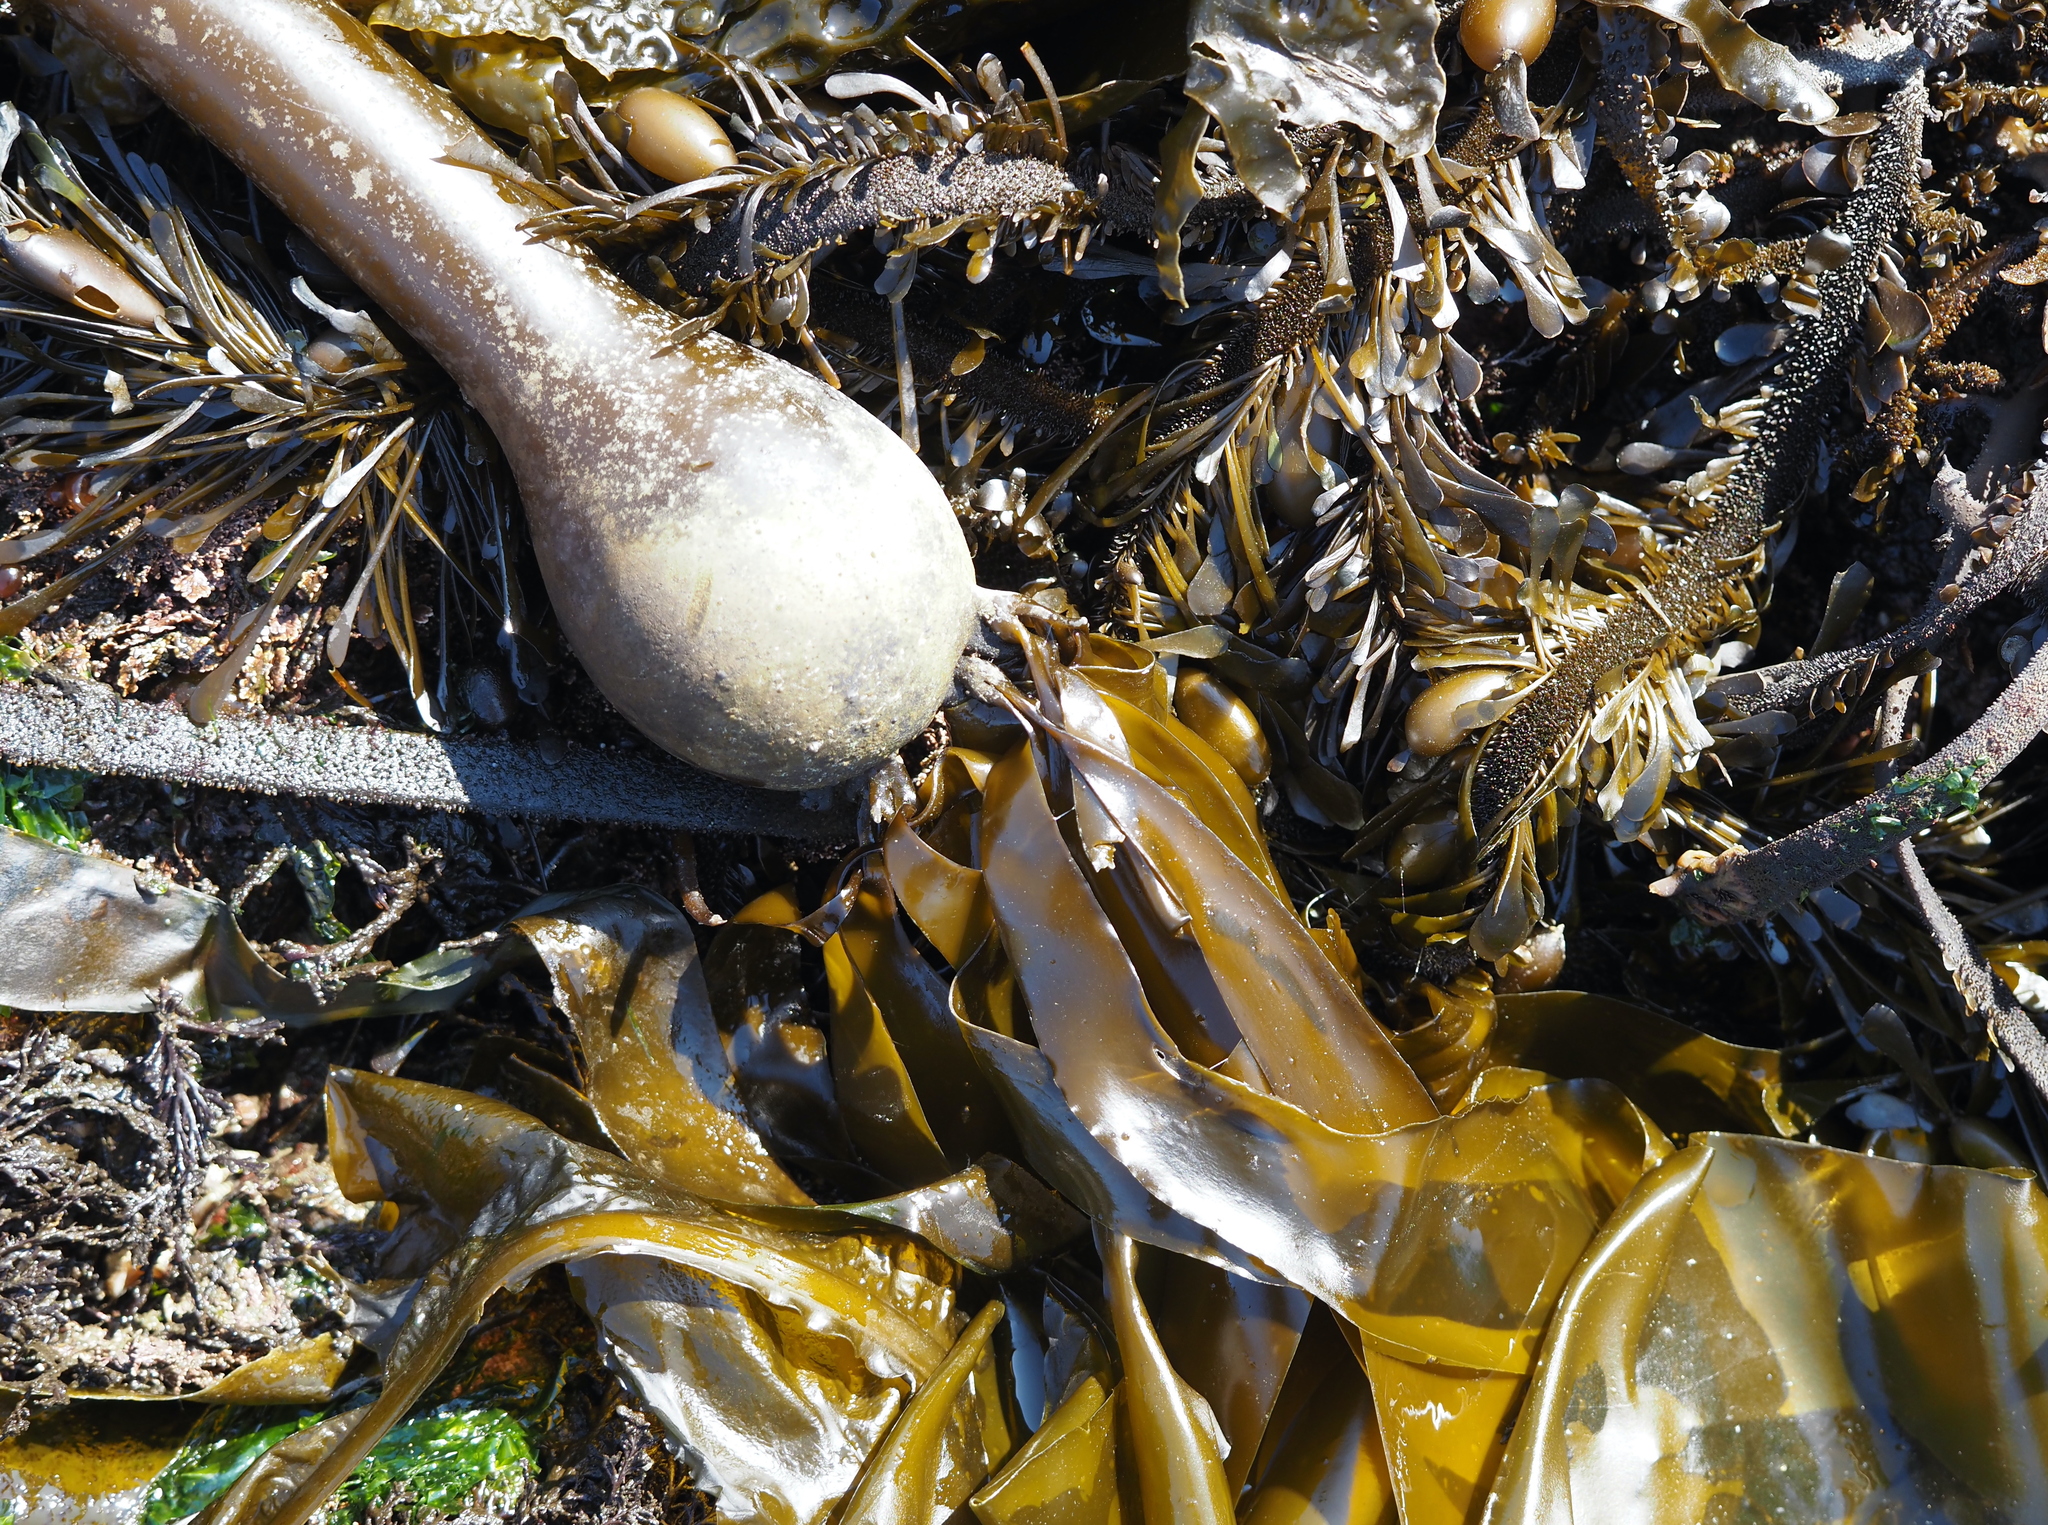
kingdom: Chromista
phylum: Ochrophyta
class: Phaeophyceae
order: Laminariales
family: Laminariaceae
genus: Nereocystis
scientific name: Nereocystis luetkeana
